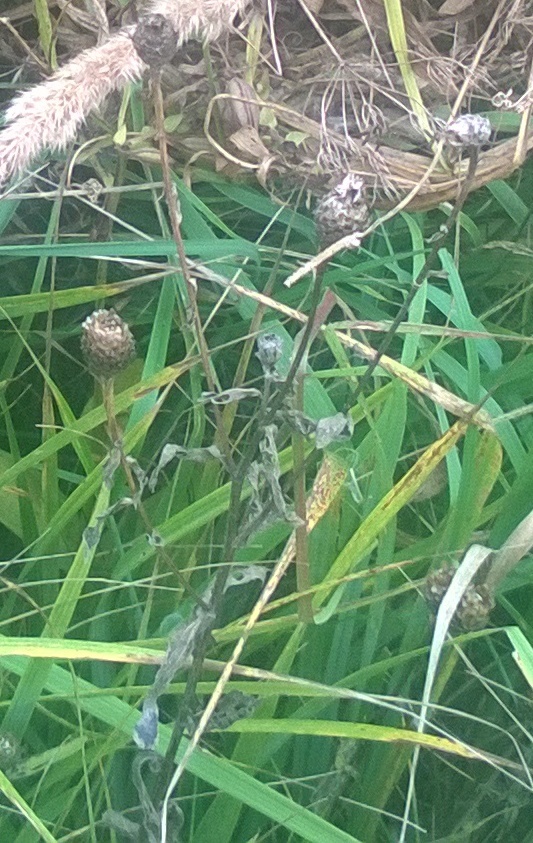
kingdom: Plantae
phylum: Tracheophyta
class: Magnoliopsida
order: Asterales
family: Asteraceae
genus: Centaurea
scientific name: Centaurea jacea
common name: Brown knapweed
